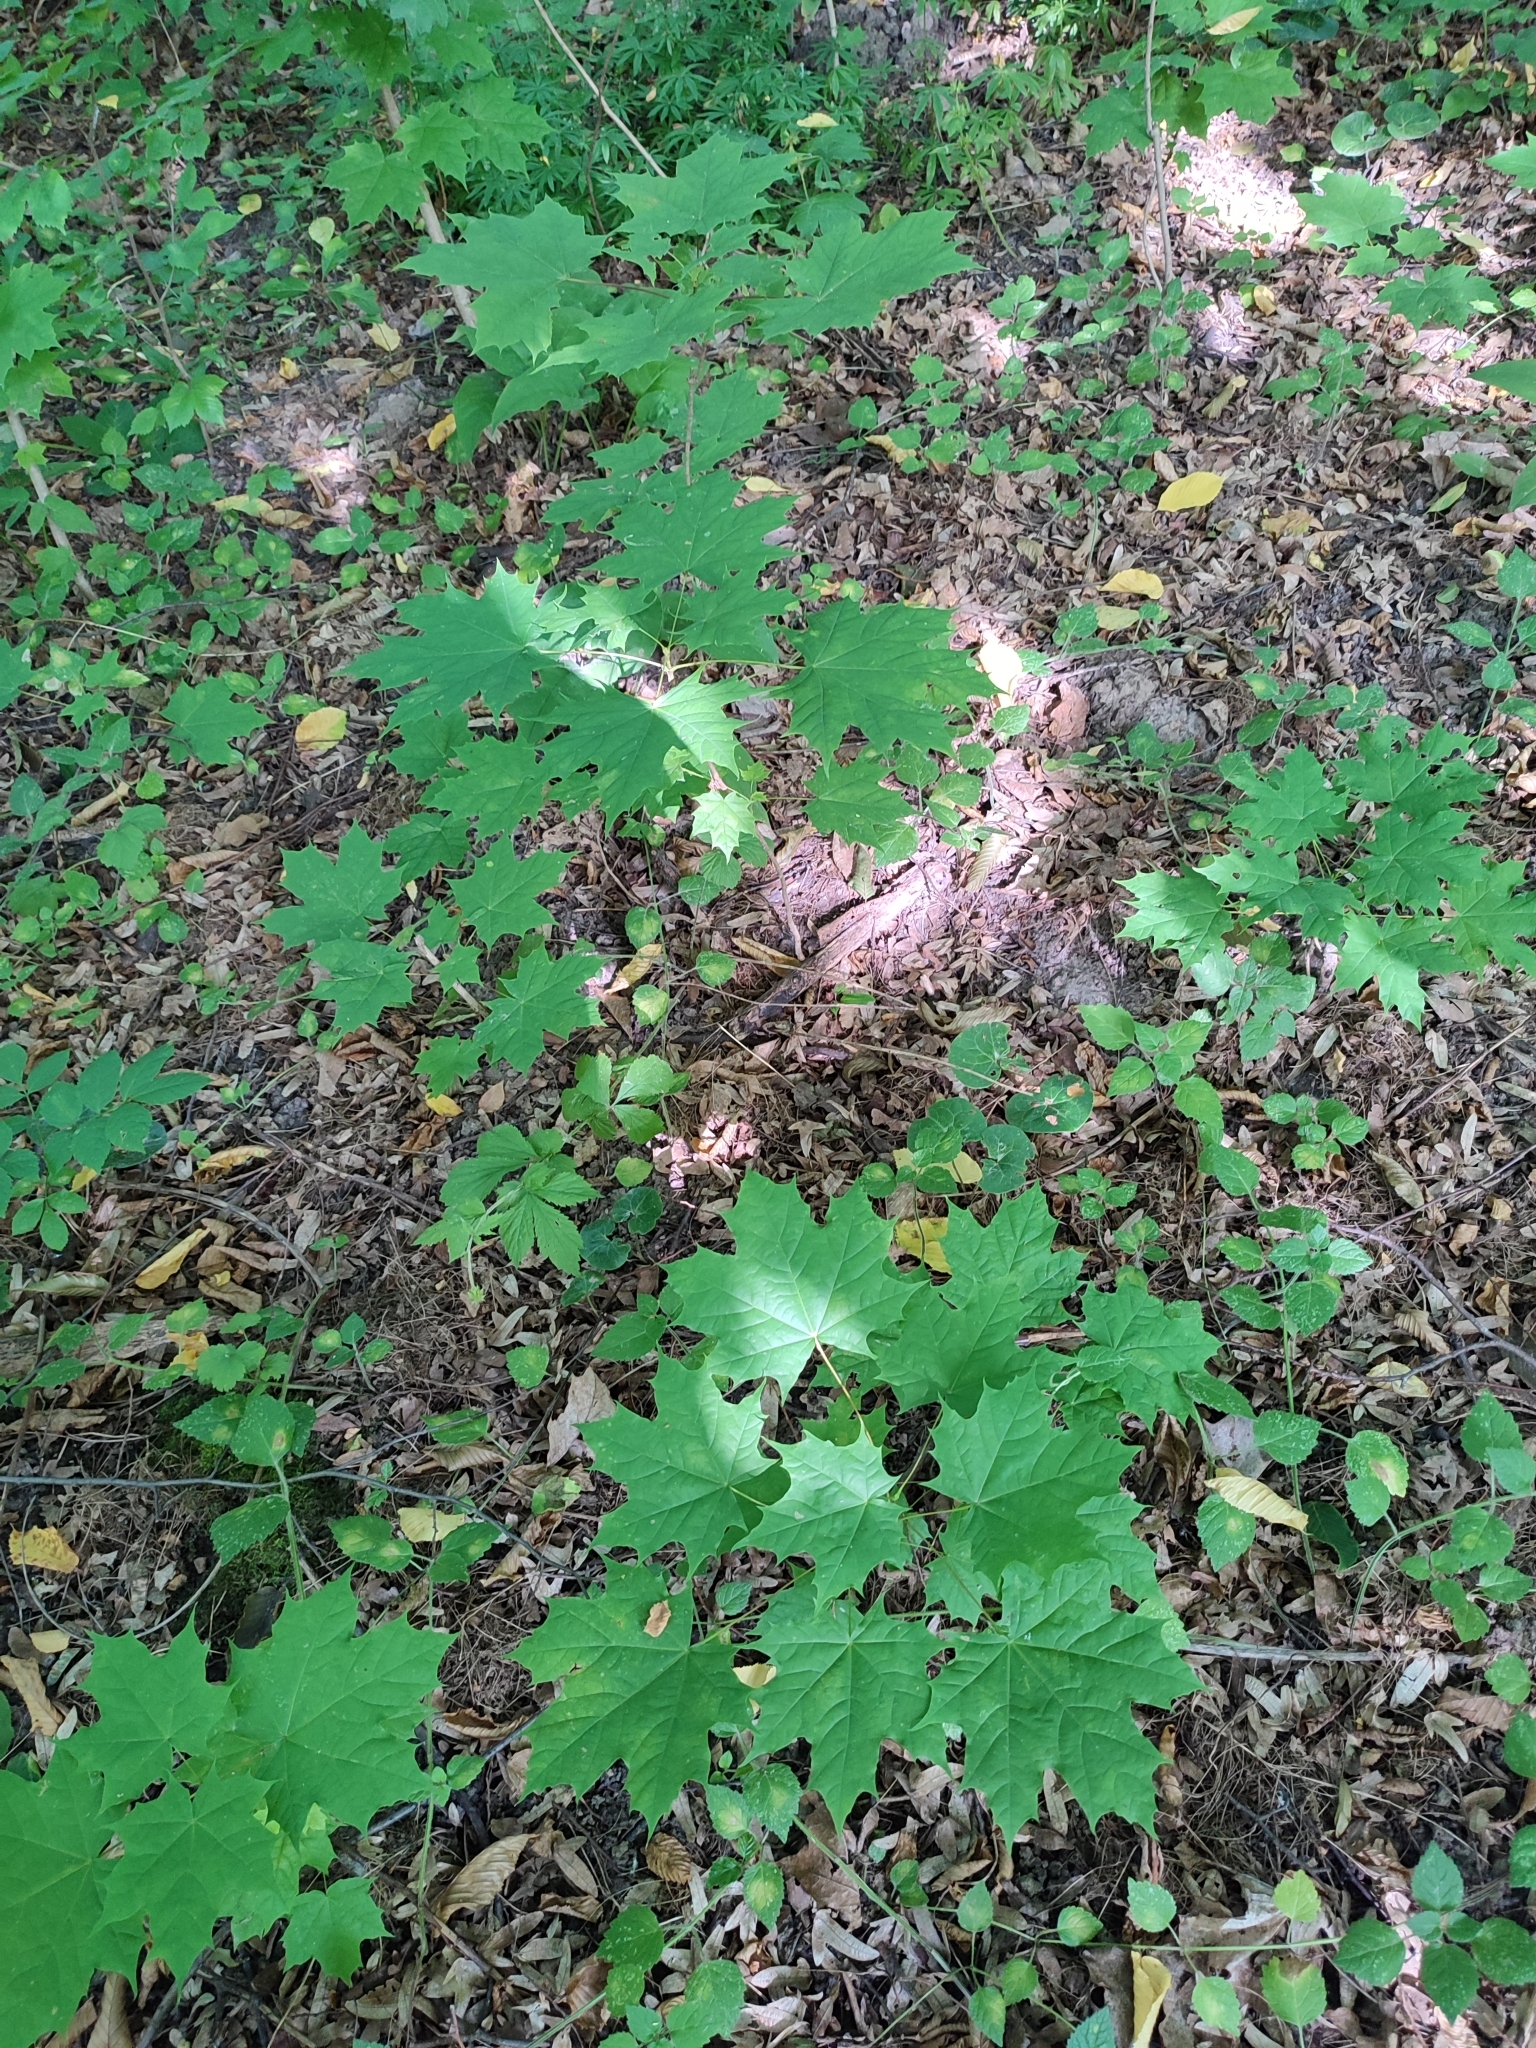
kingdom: Plantae
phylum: Tracheophyta
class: Magnoliopsida
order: Sapindales
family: Sapindaceae
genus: Acer
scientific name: Acer platanoides
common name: Norway maple
